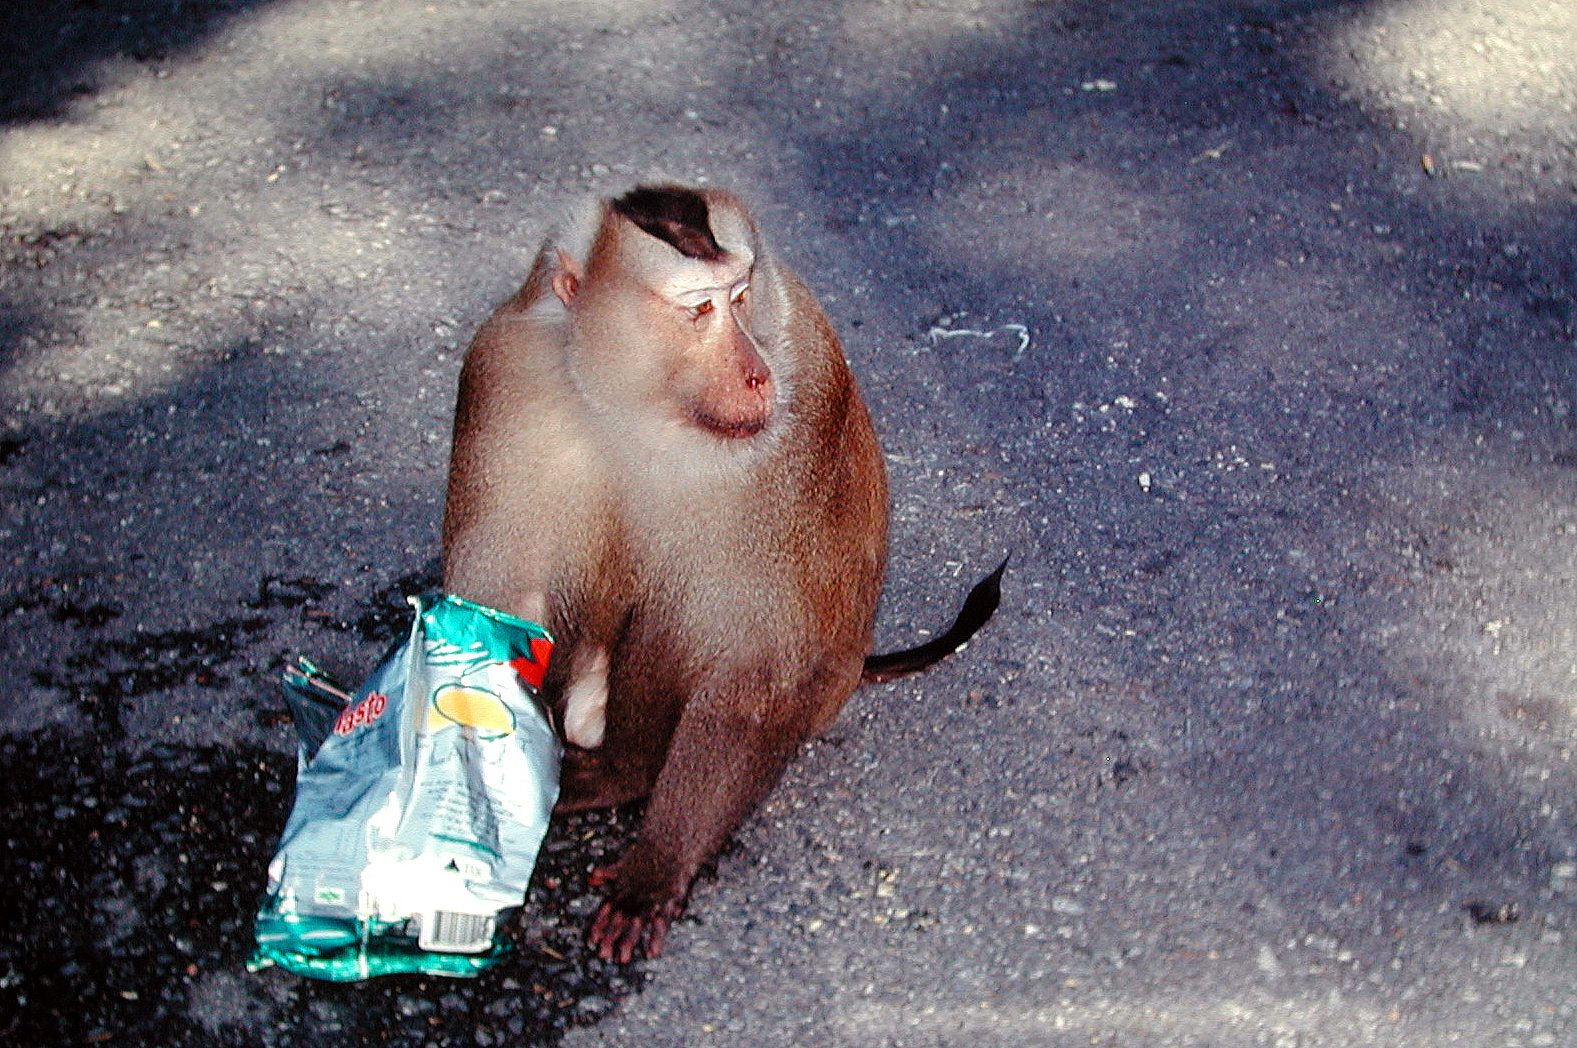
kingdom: Animalia
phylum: Chordata
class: Mammalia
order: Primates
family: Cercopithecidae
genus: Macaca
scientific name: Macaca leonina
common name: Northern pig-tailed macaque
